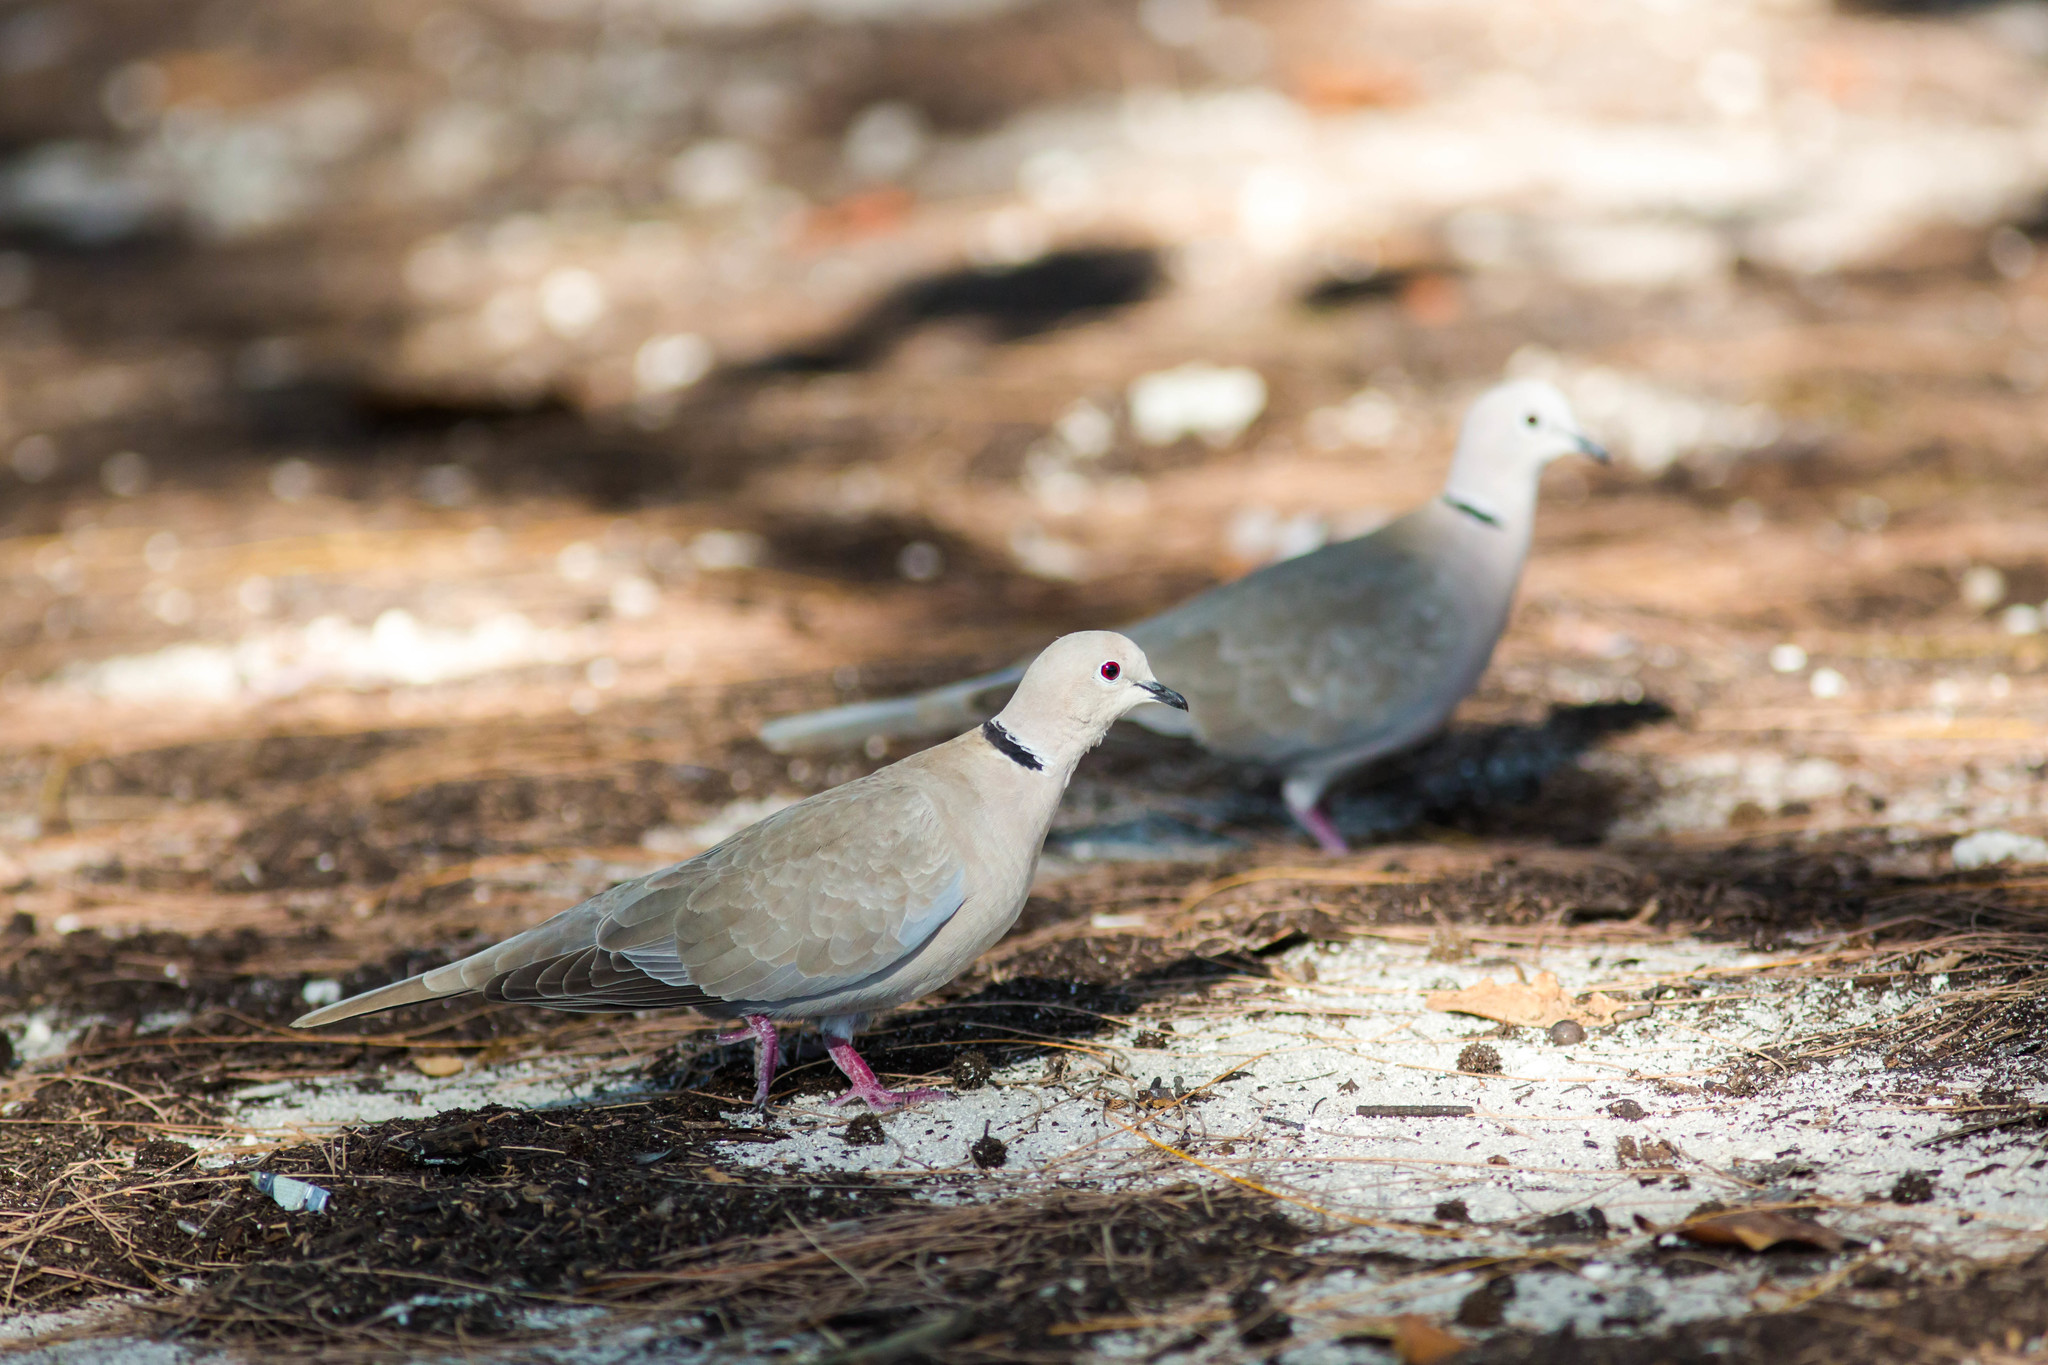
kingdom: Animalia
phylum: Chordata
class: Aves
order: Columbiformes
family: Columbidae
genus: Streptopelia
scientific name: Streptopelia decaocto
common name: Eurasian collared dove
